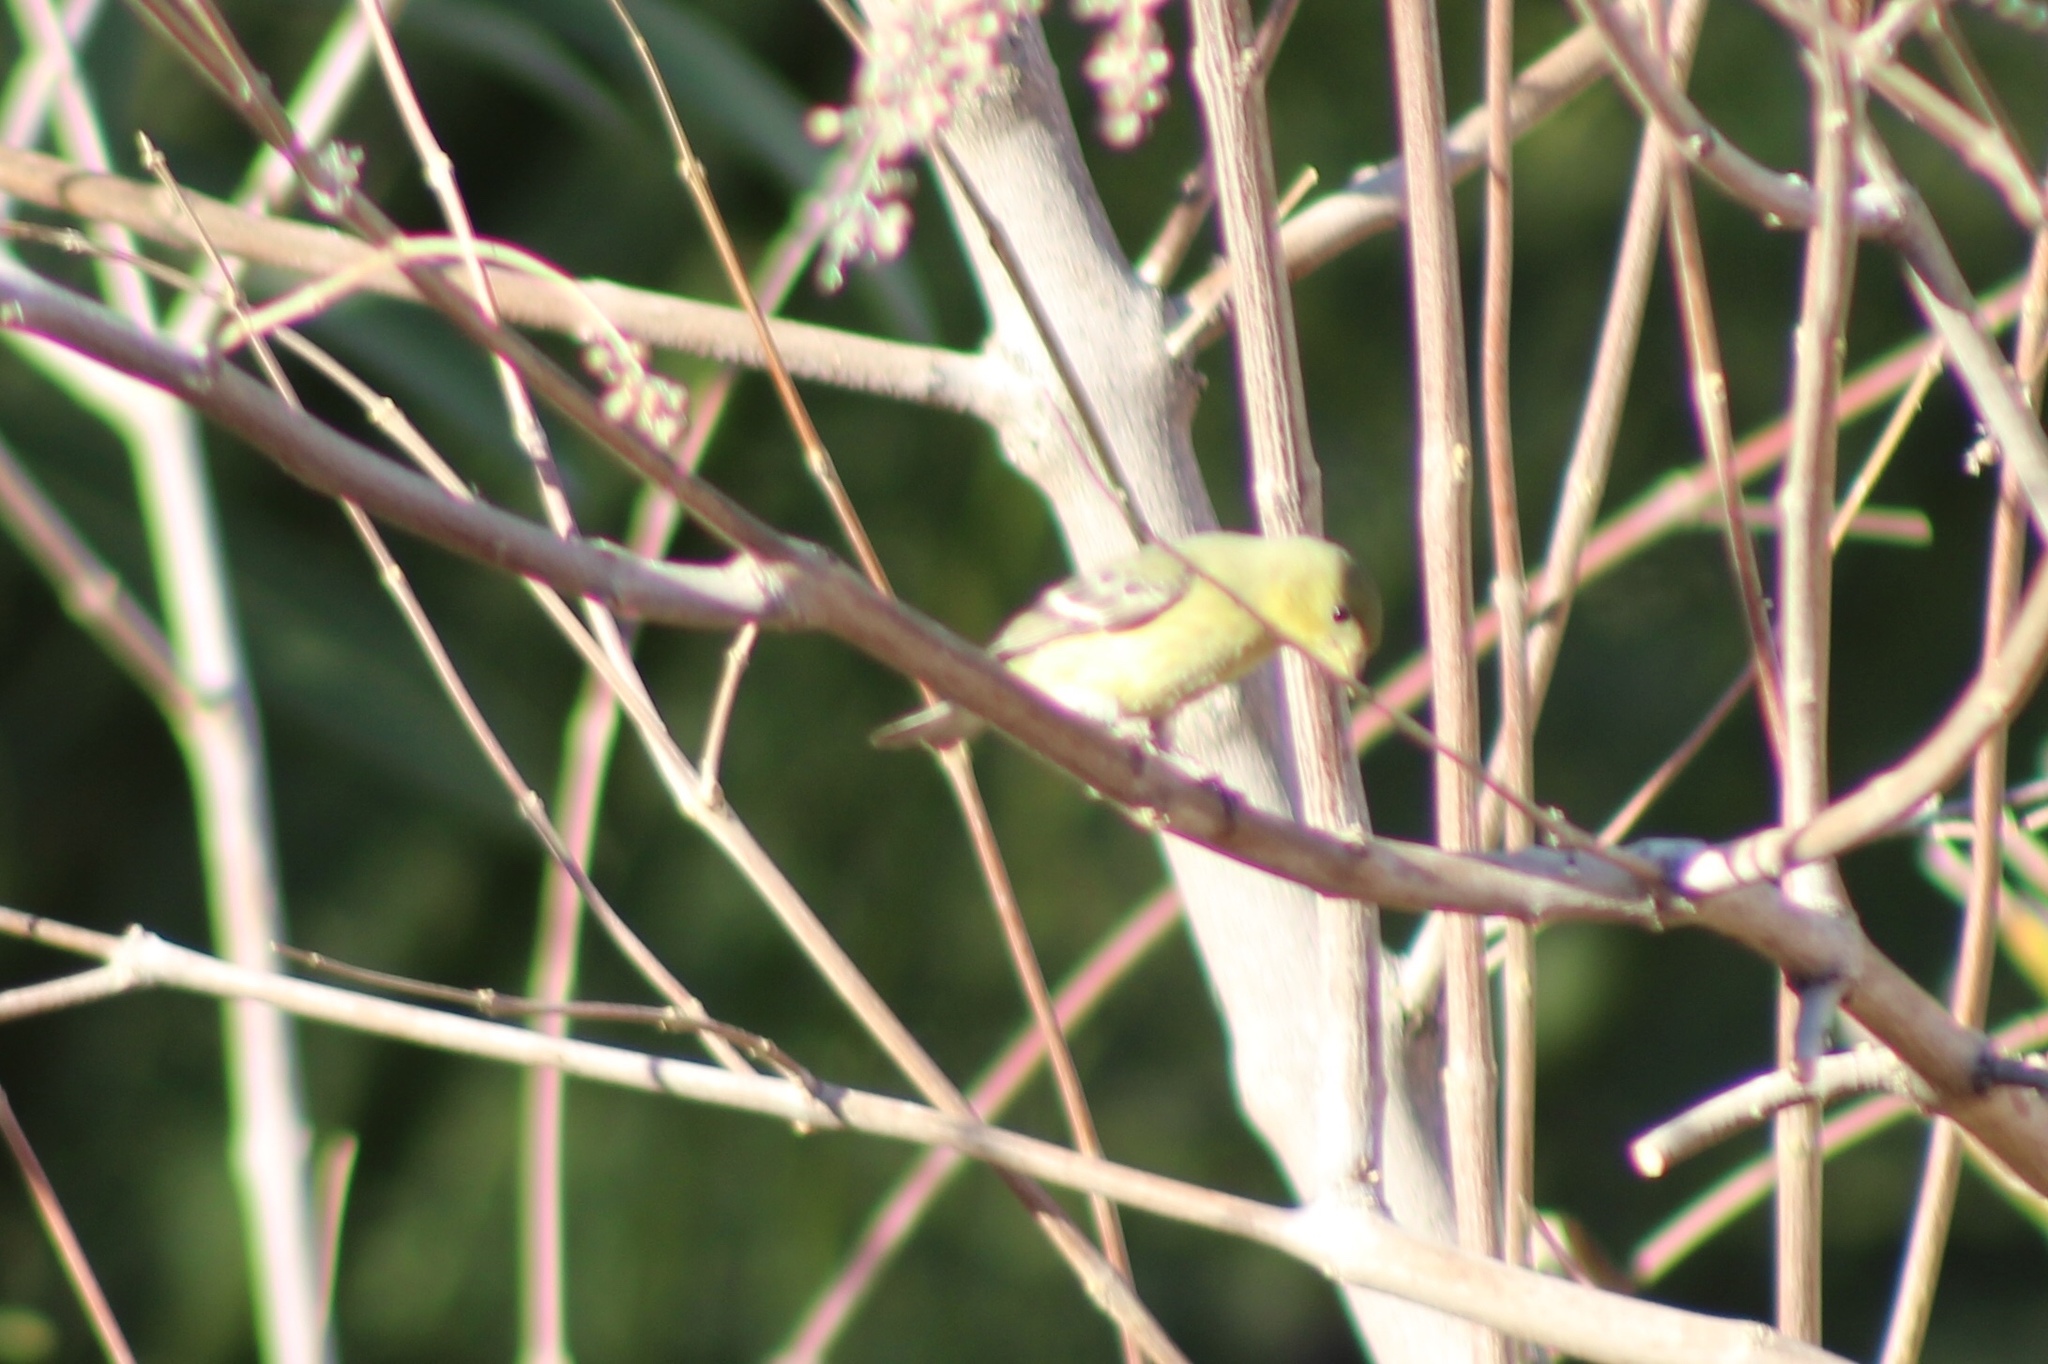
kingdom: Animalia
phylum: Chordata
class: Aves
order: Passeriformes
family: Fringillidae
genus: Spinus
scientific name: Spinus psaltria
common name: Lesser goldfinch
